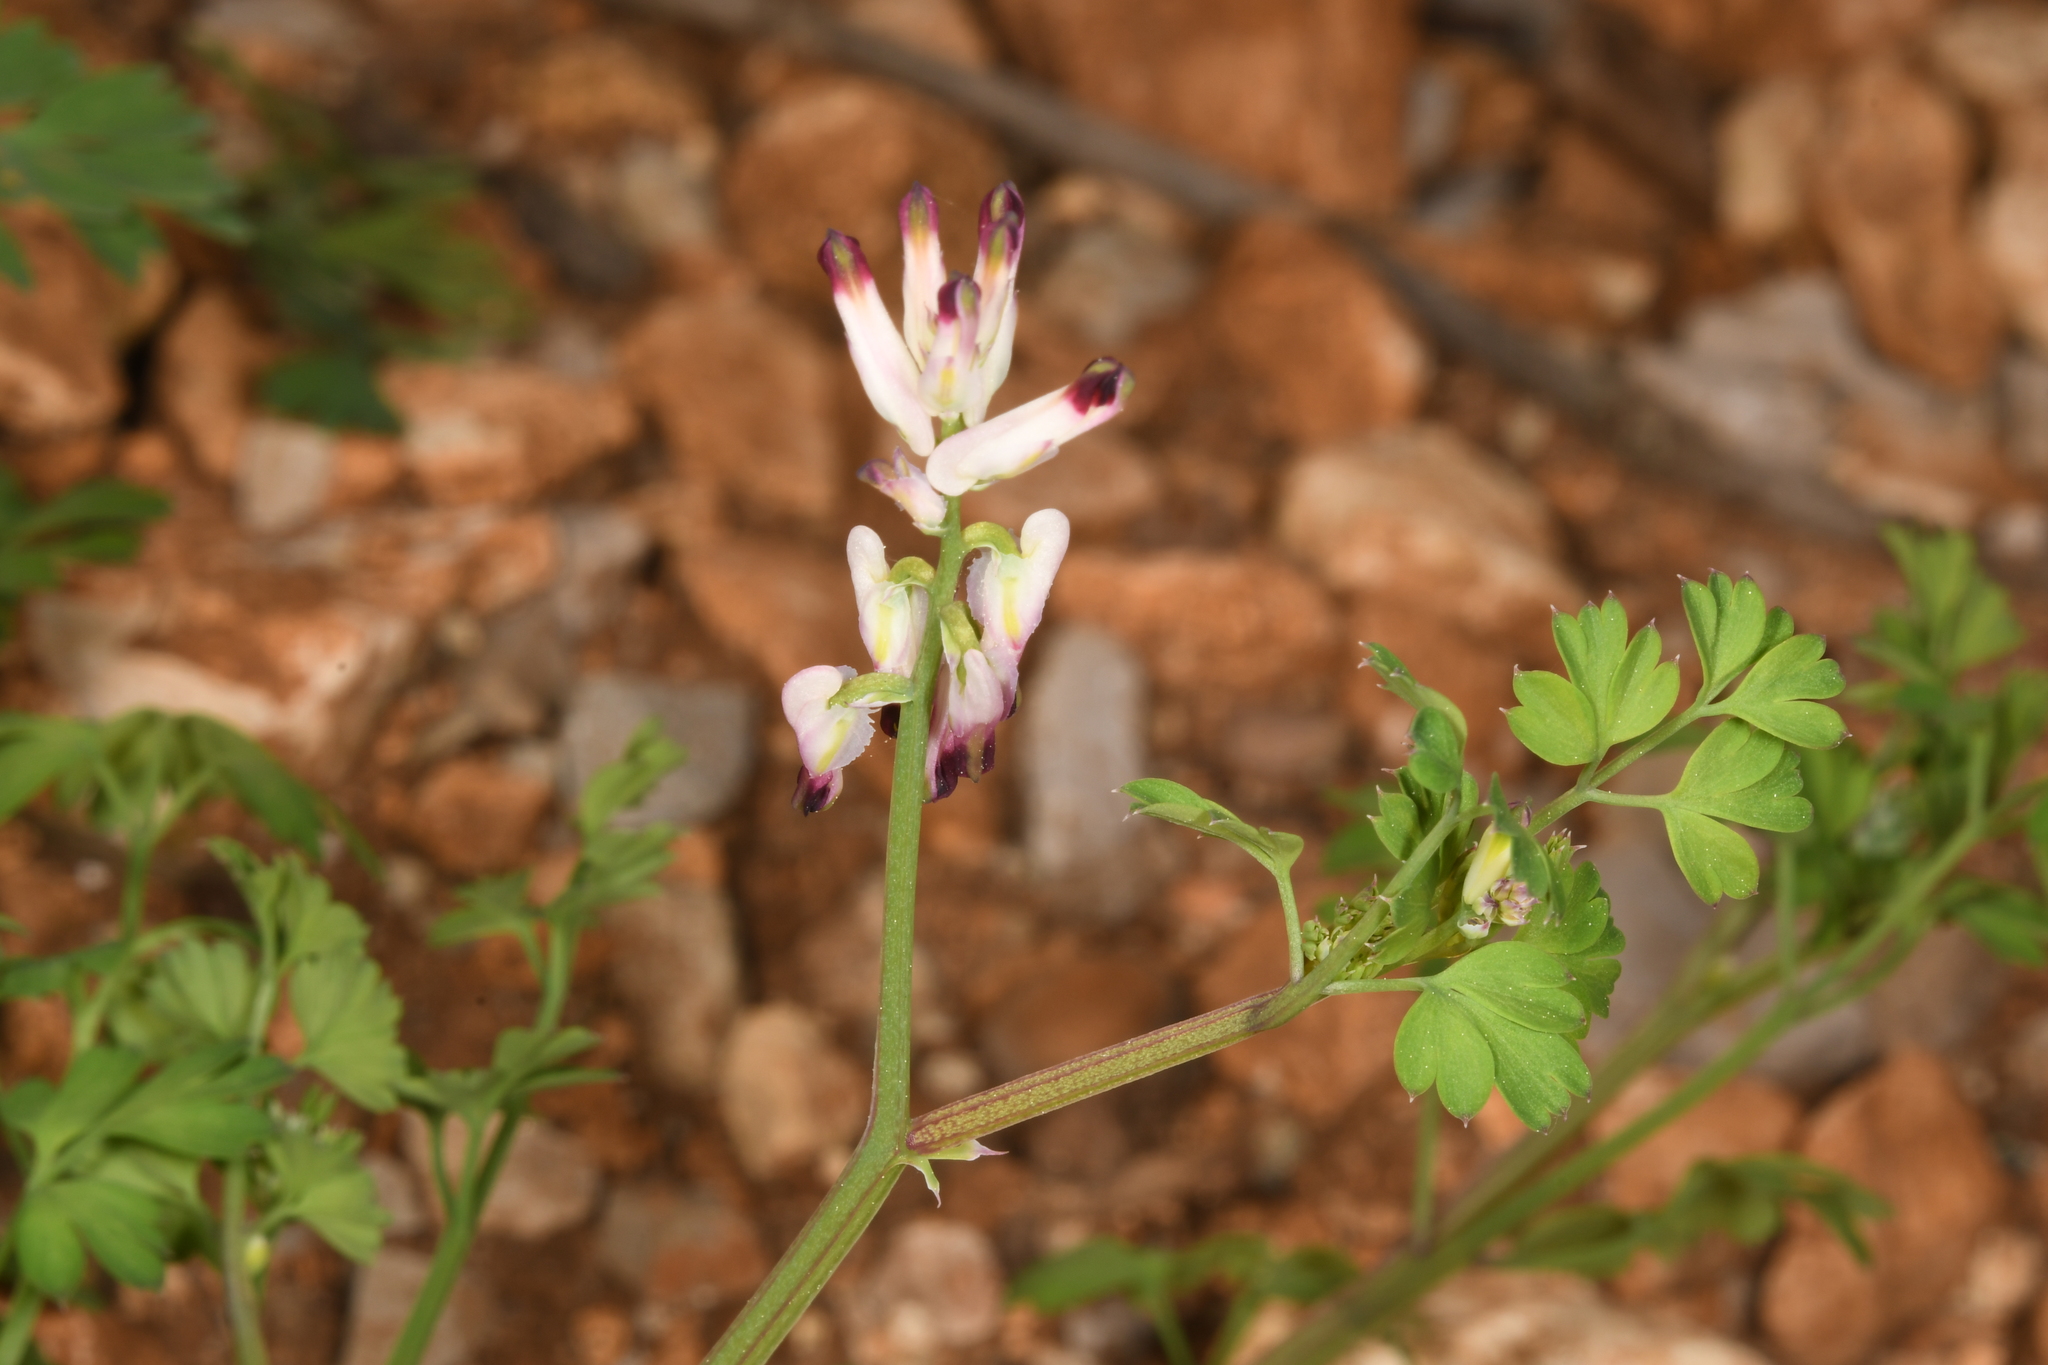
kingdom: Plantae
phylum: Tracheophyta
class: Magnoliopsida
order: Ranunculales
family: Papaveraceae
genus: Fumaria
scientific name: Fumaria capreolata
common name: White ramping-fumitory
